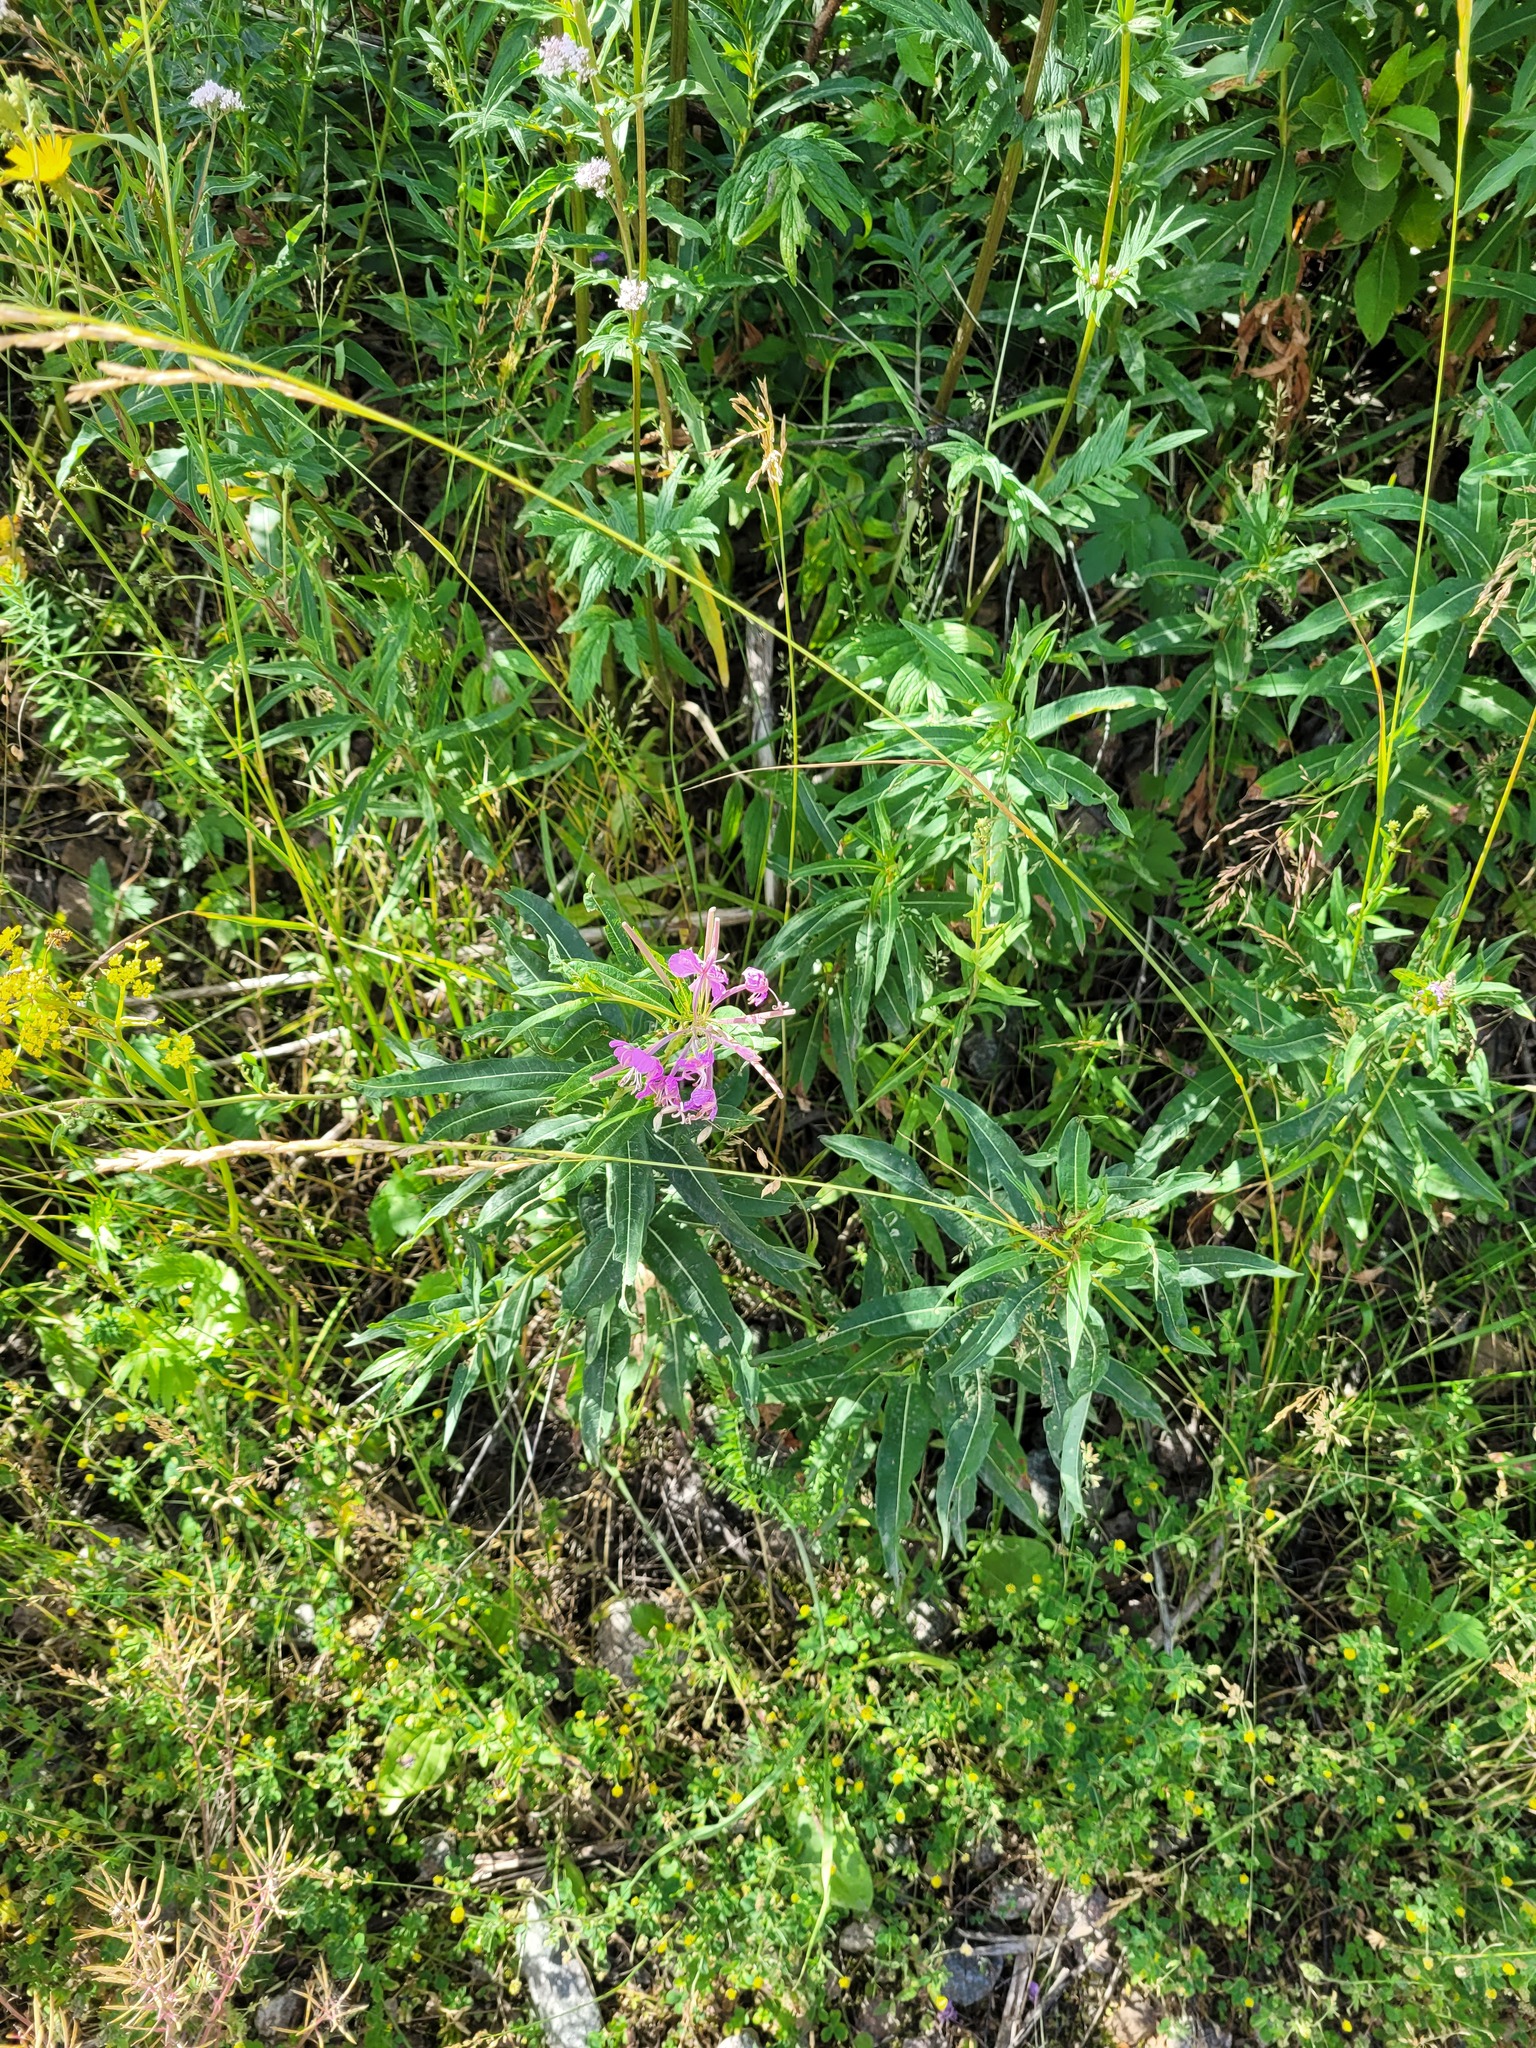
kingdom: Plantae
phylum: Tracheophyta
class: Magnoliopsida
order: Myrtales
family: Onagraceae
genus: Chamaenerion
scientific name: Chamaenerion angustifolium
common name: Fireweed
